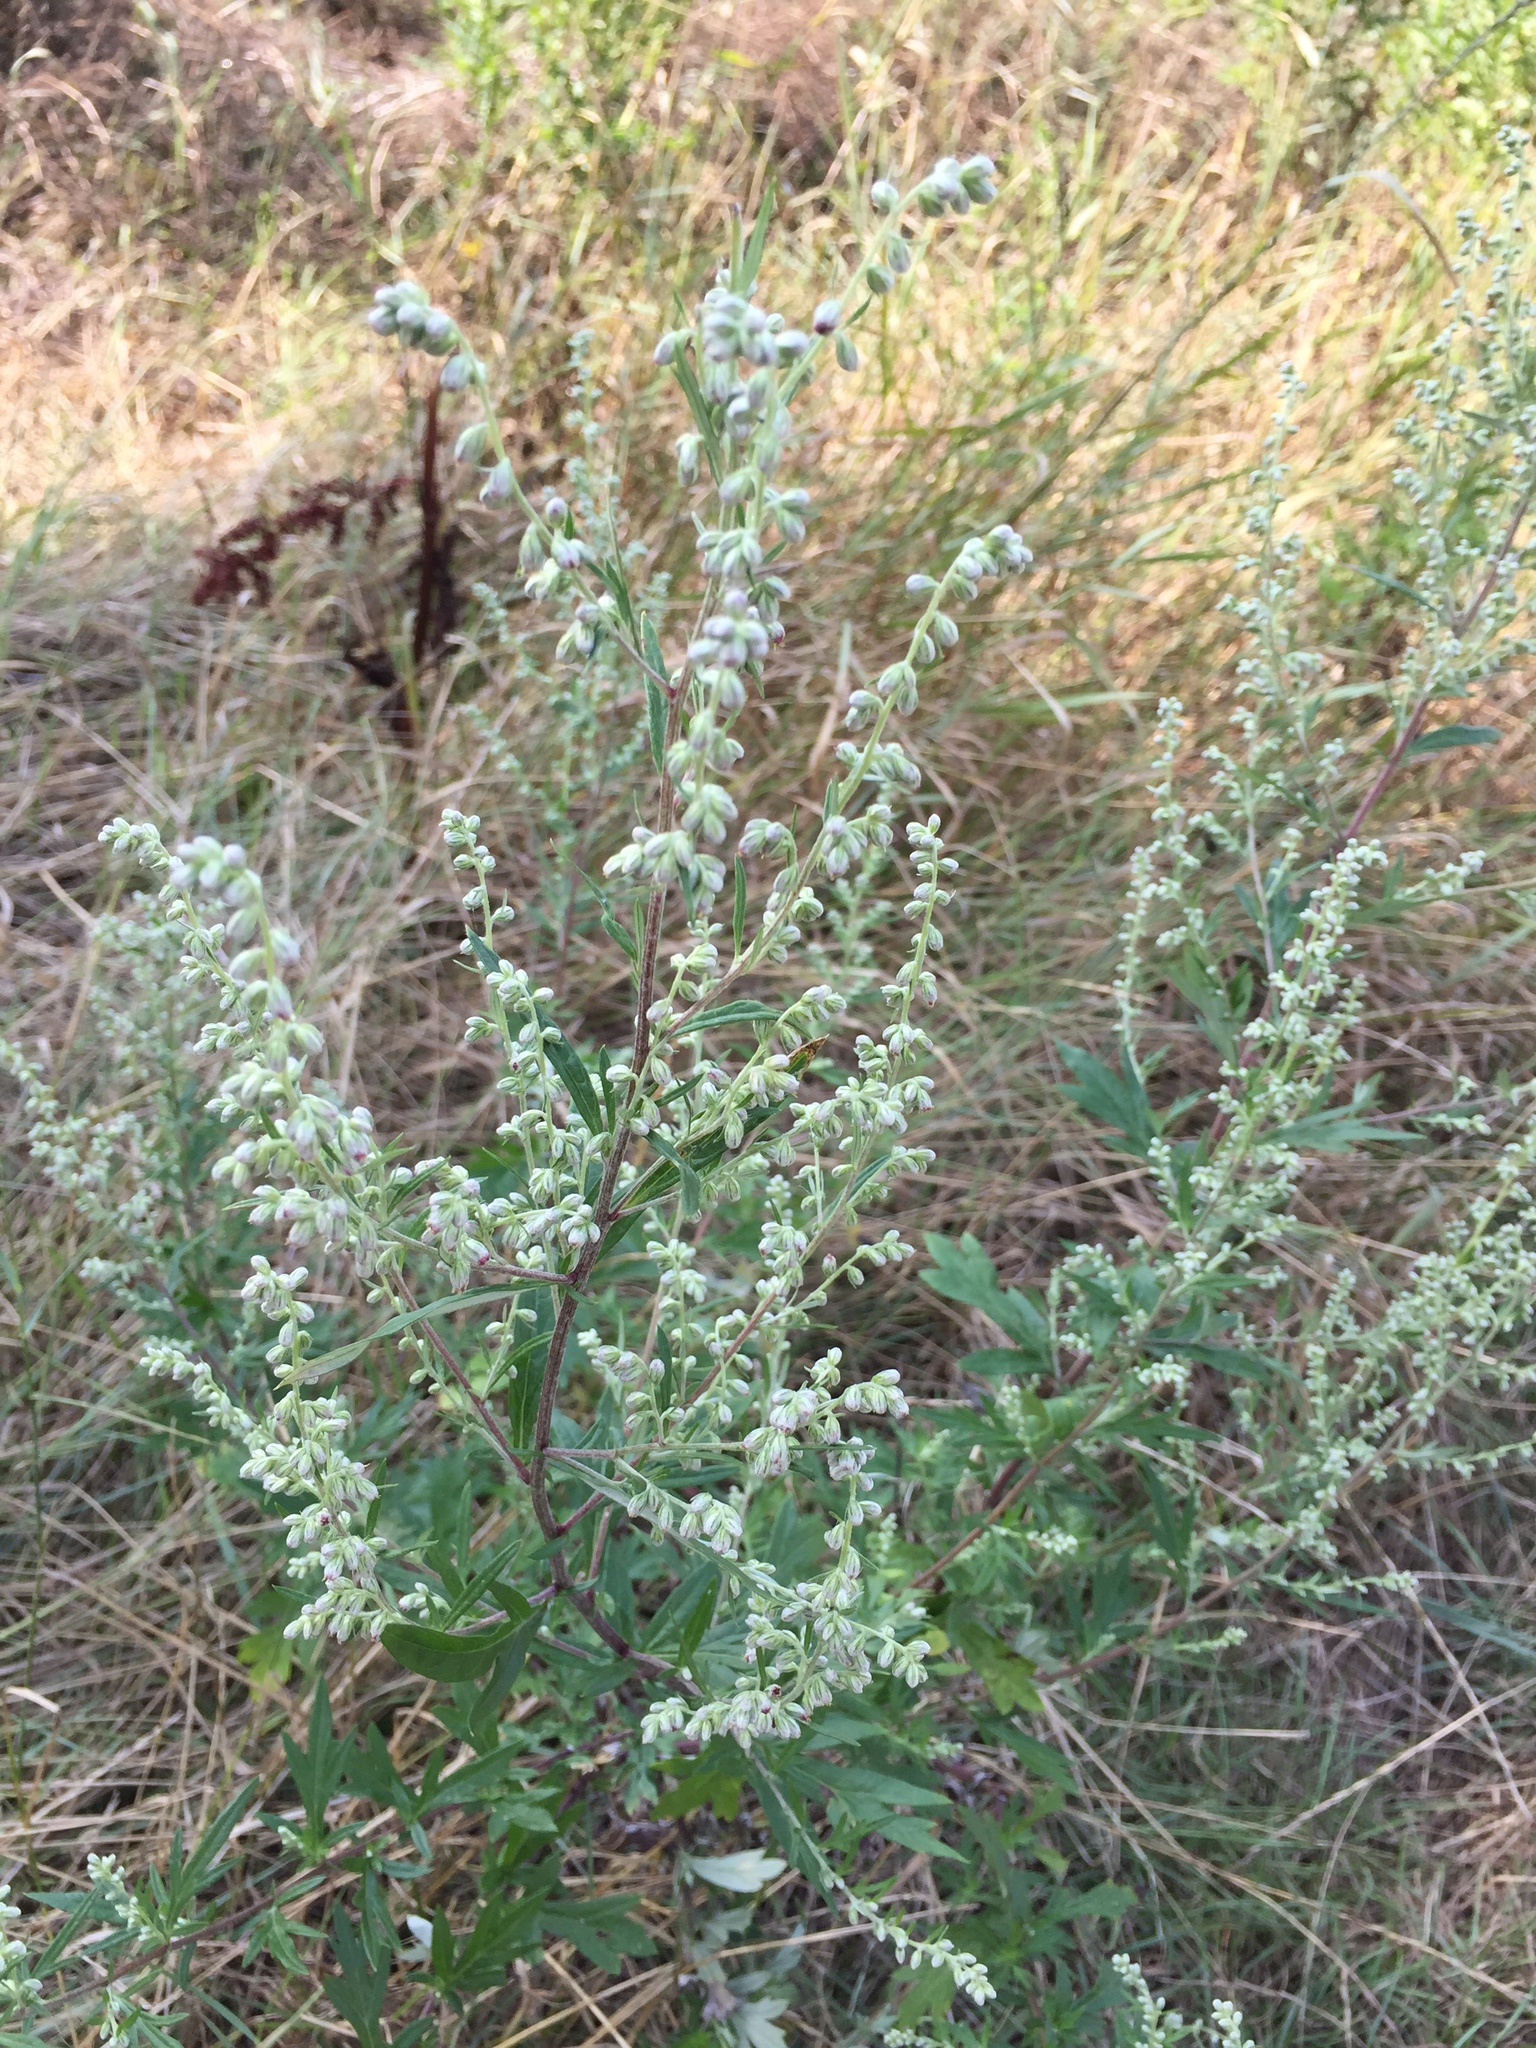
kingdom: Plantae
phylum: Tracheophyta
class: Magnoliopsida
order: Asterales
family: Asteraceae
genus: Artemisia
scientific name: Artemisia vulgaris
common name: Mugwort
